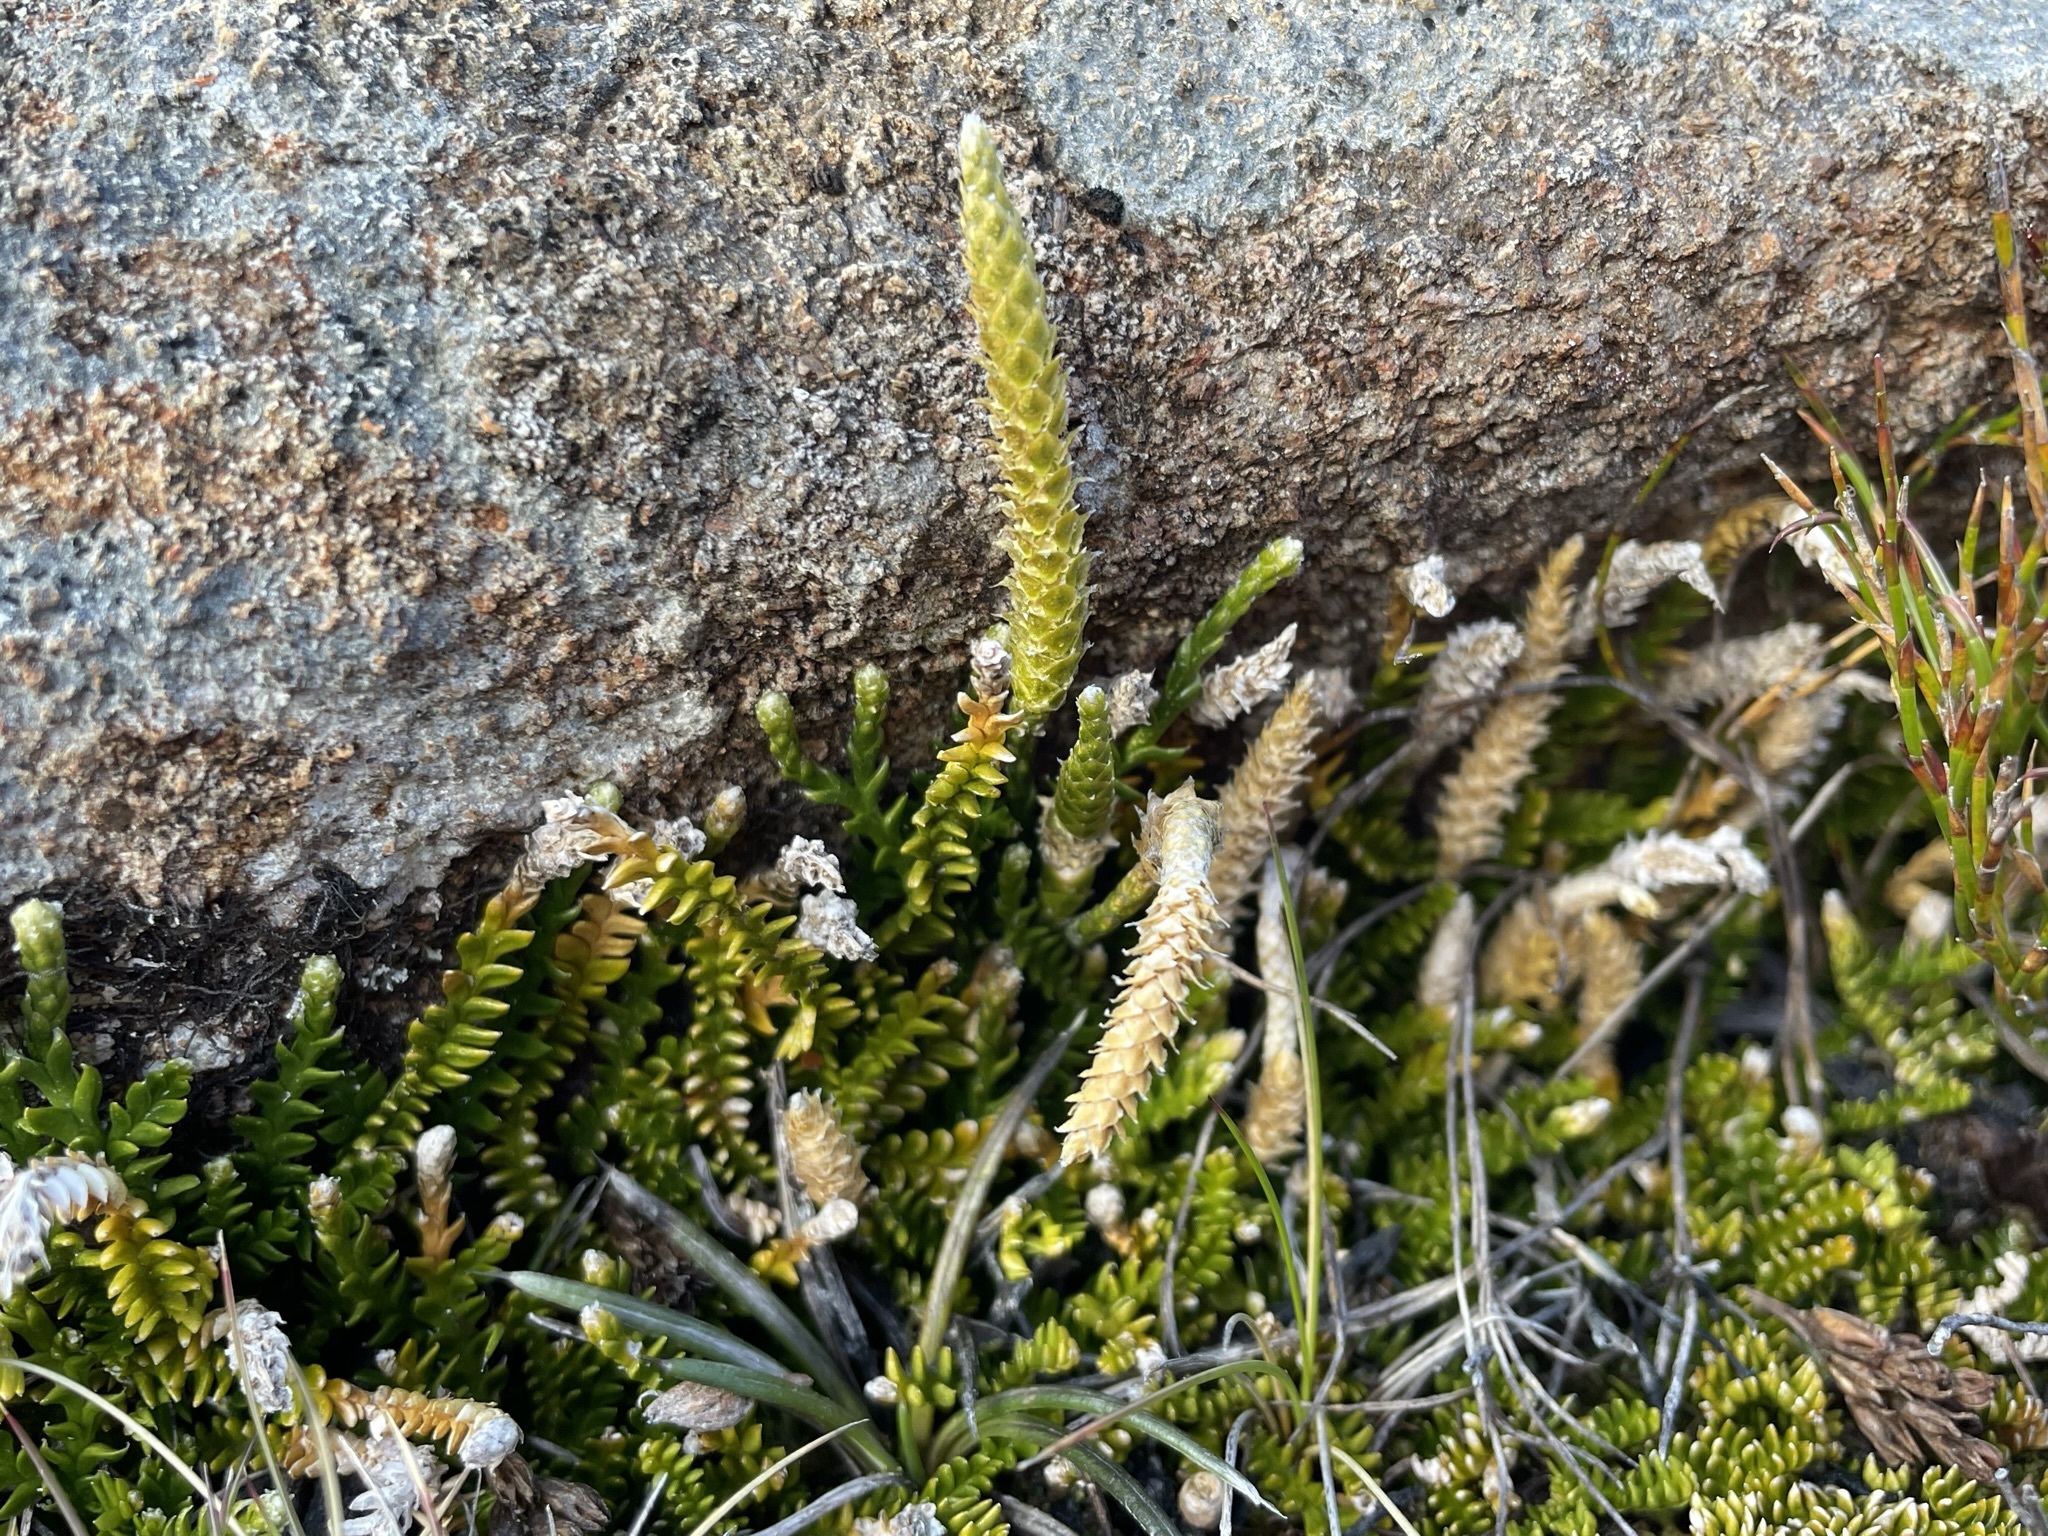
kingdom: Plantae
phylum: Tracheophyta
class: Lycopodiopsida
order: Lycopodiales
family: Lycopodiaceae
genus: Diphasium
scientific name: Diphasium scariosum
